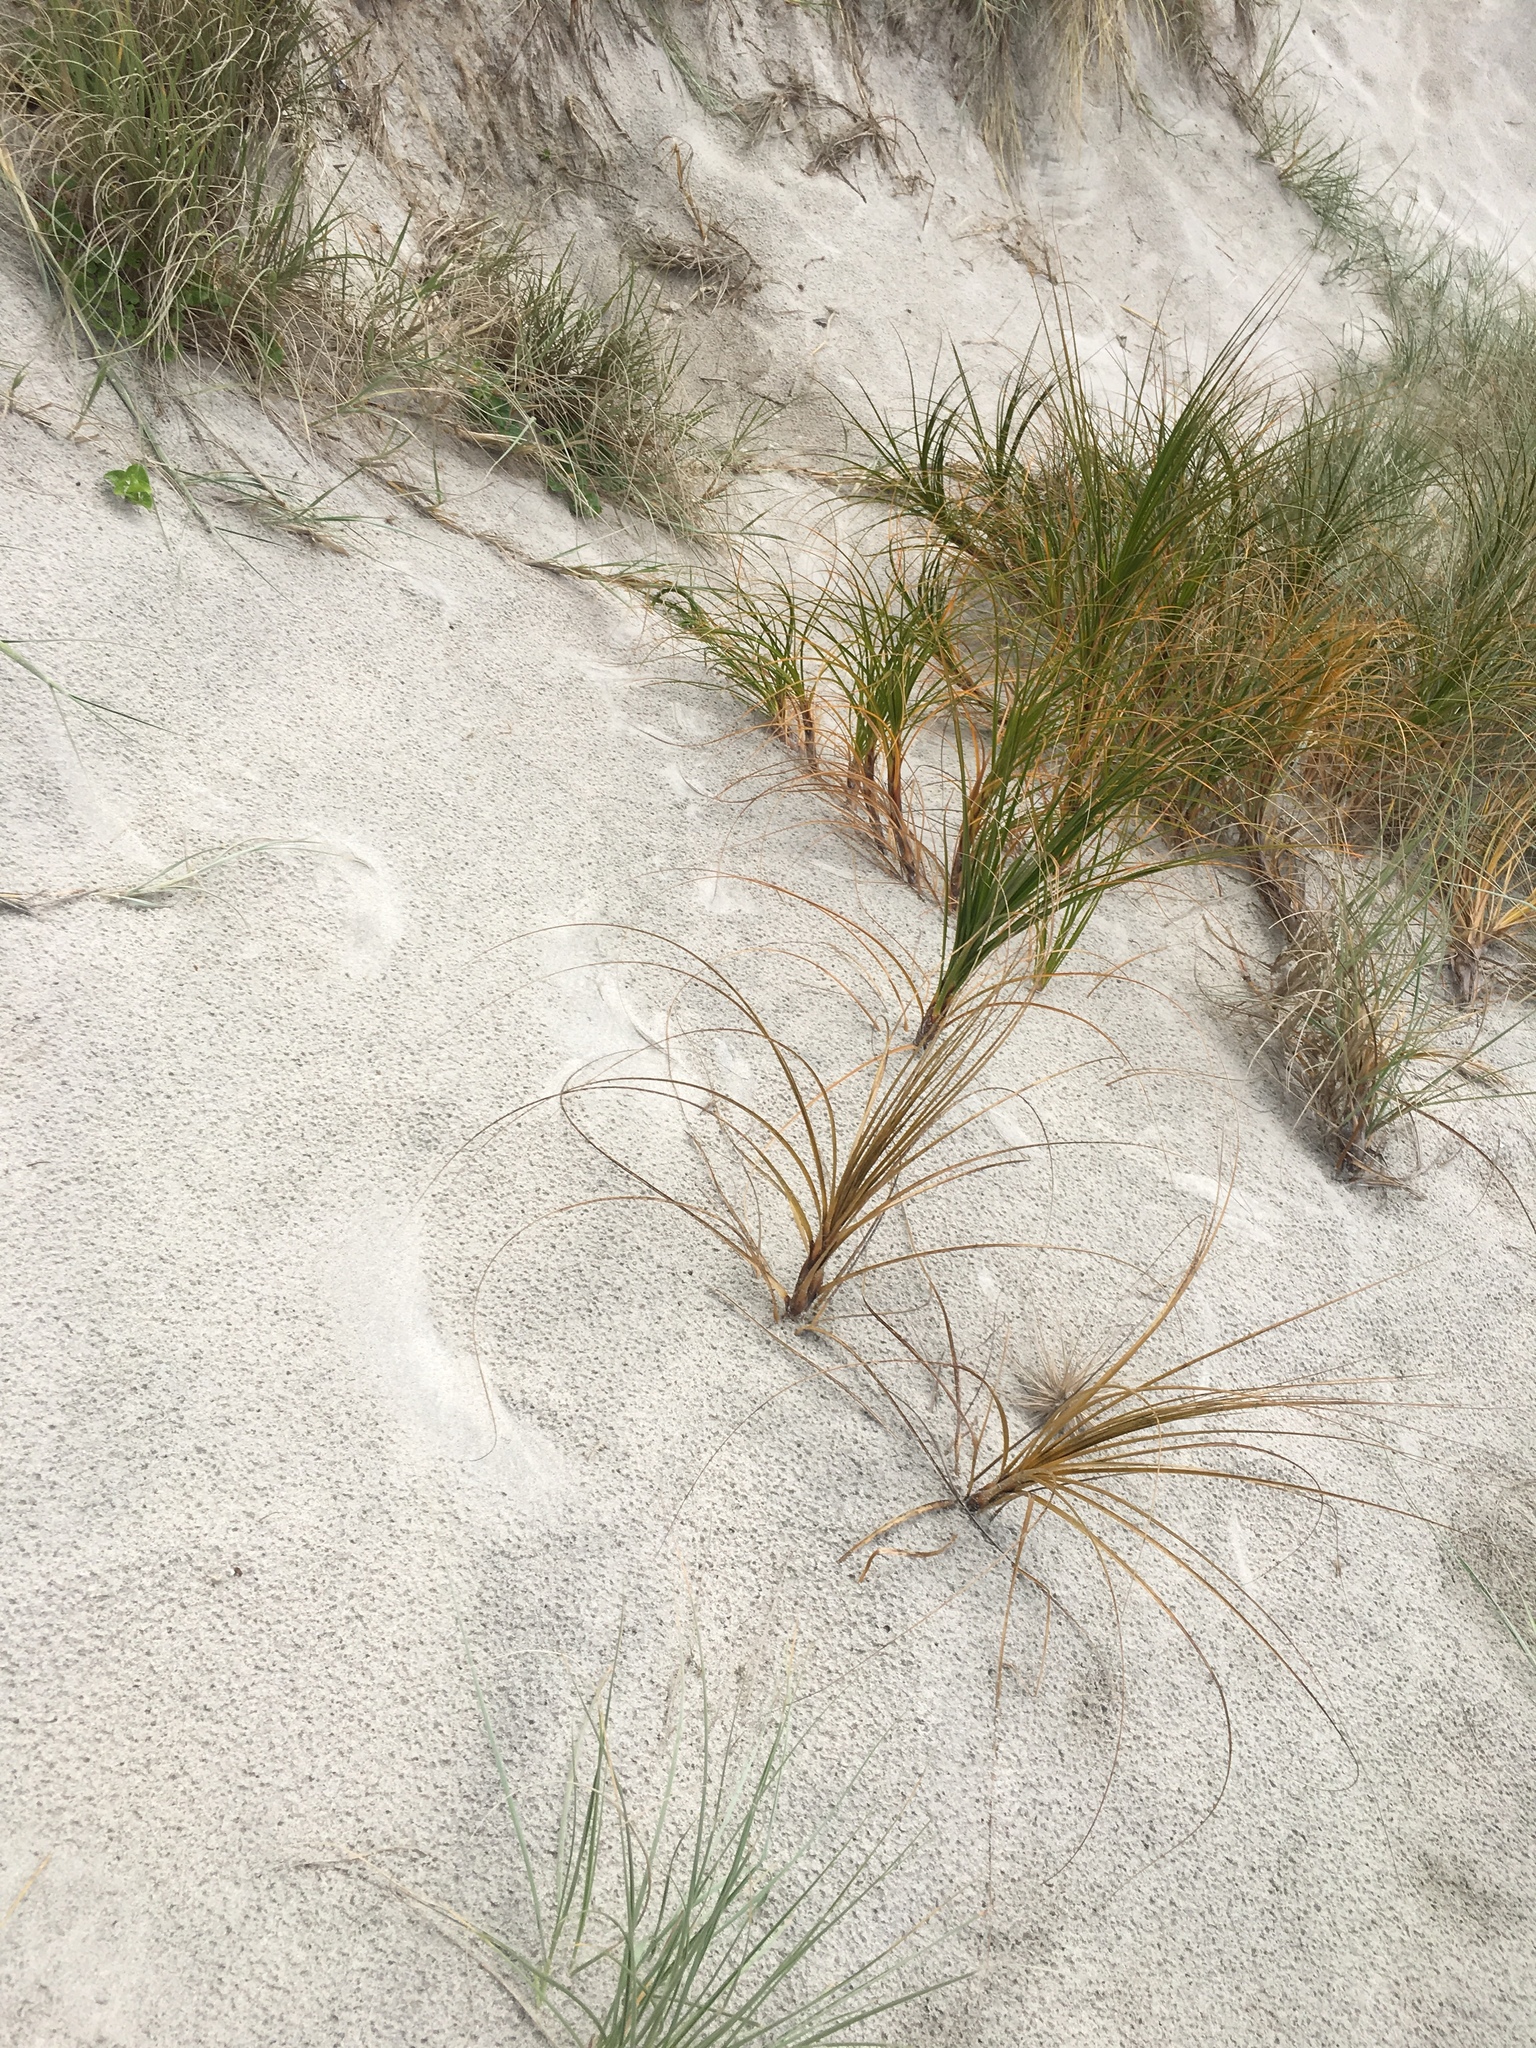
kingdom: Plantae
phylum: Tracheophyta
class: Liliopsida
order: Poales
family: Cyperaceae
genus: Ficinia
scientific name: Ficinia spiralis
